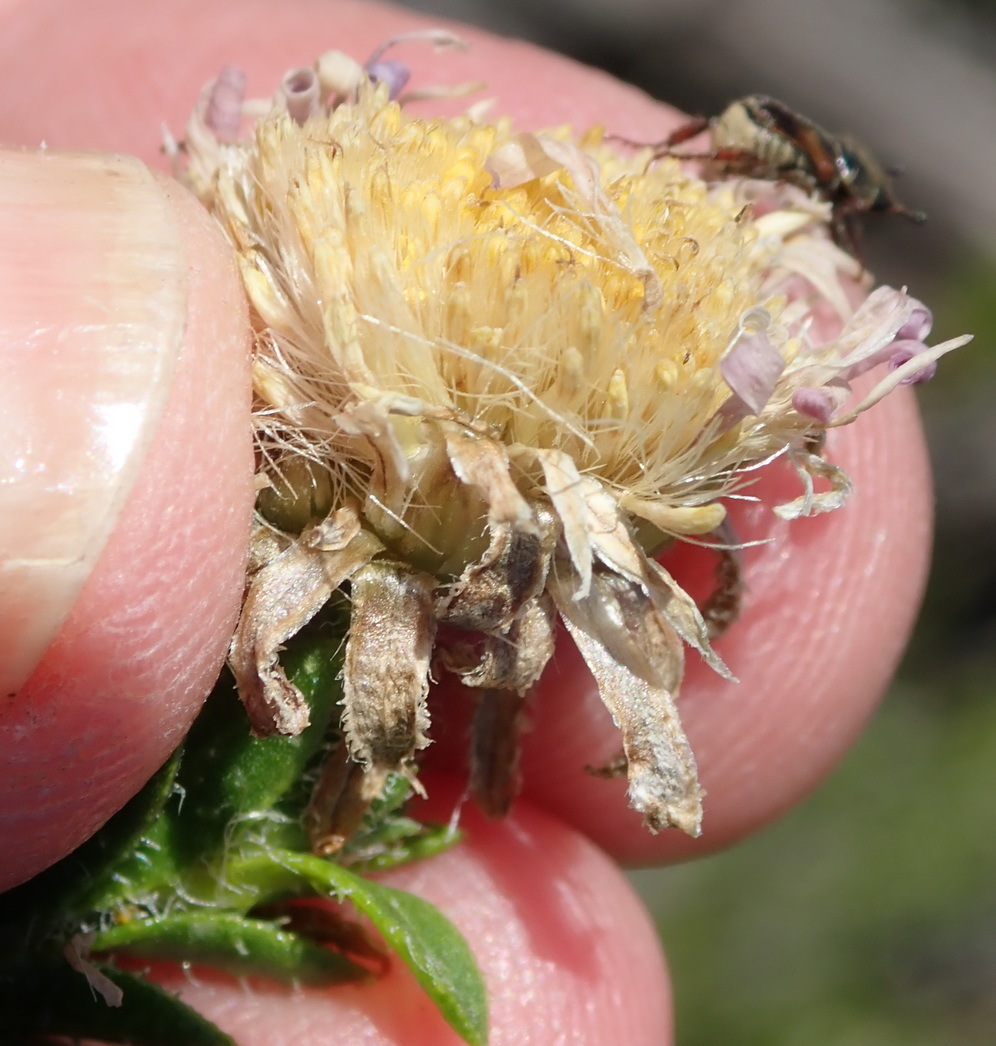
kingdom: Plantae
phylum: Tracheophyta
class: Magnoliopsida
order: Asterales
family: Asteraceae
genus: Felicia
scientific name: Felicia echinata
